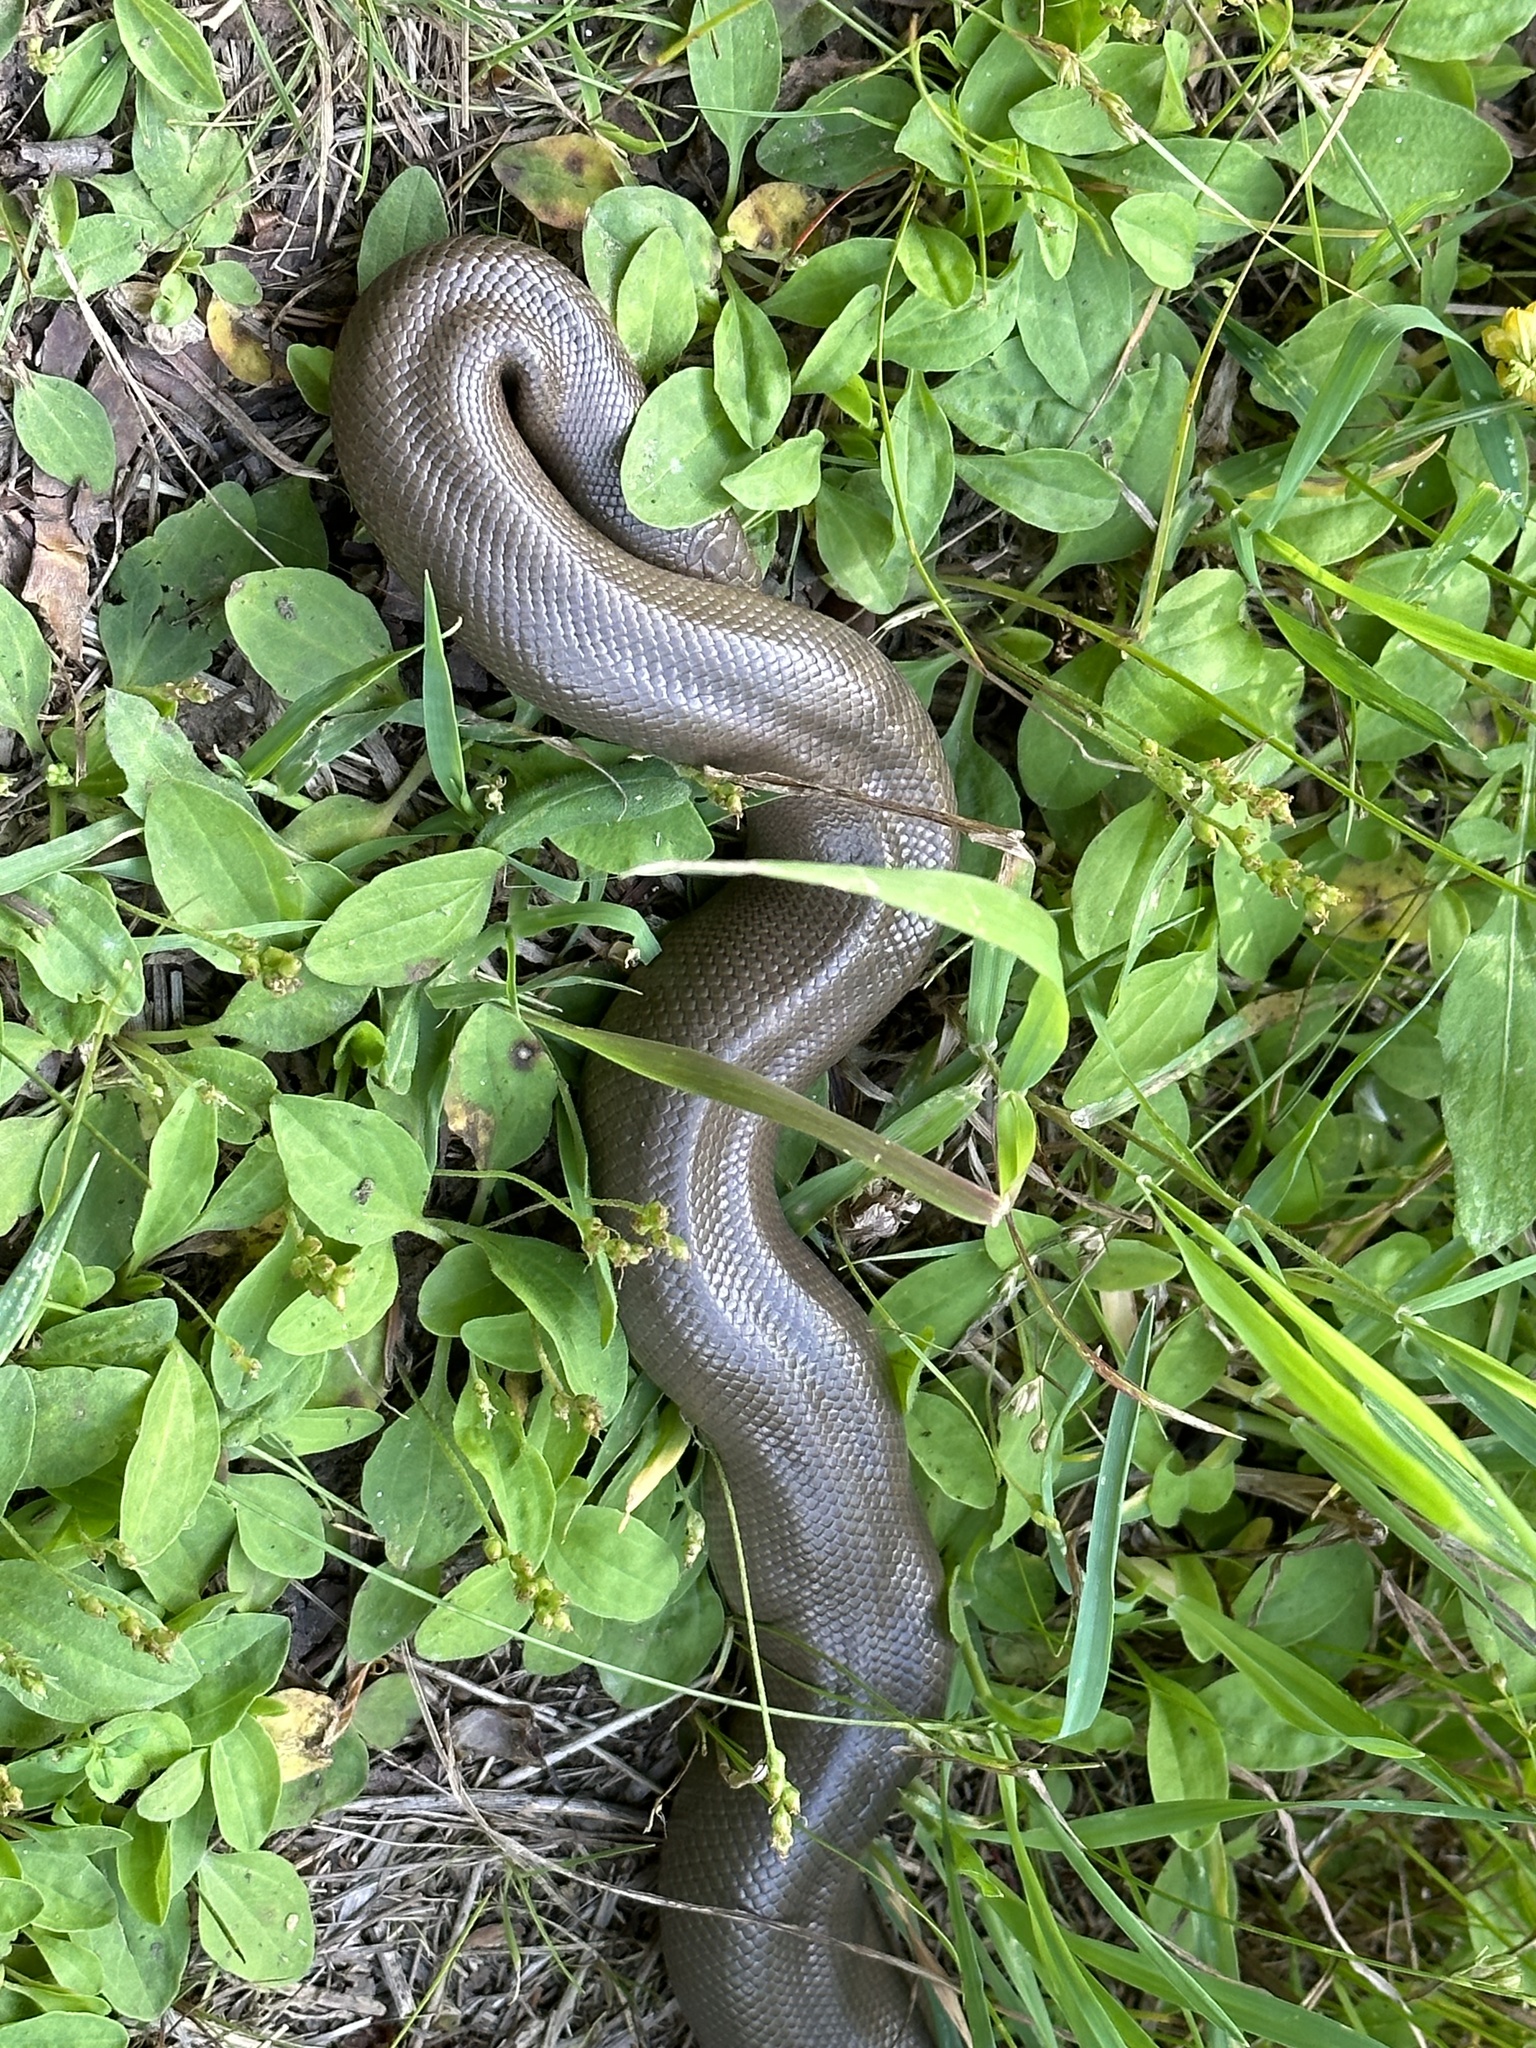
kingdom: Animalia
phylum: Chordata
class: Squamata
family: Boidae
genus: Charina
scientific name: Charina bottae
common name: Northern rubber boa
